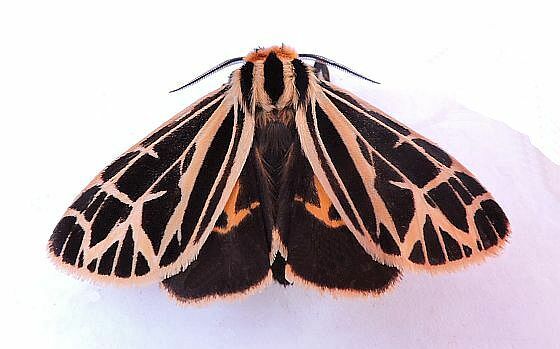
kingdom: Animalia
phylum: Arthropoda
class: Insecta
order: Lepidoptera
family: Erebidae
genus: Apantesis
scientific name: Apantesis
